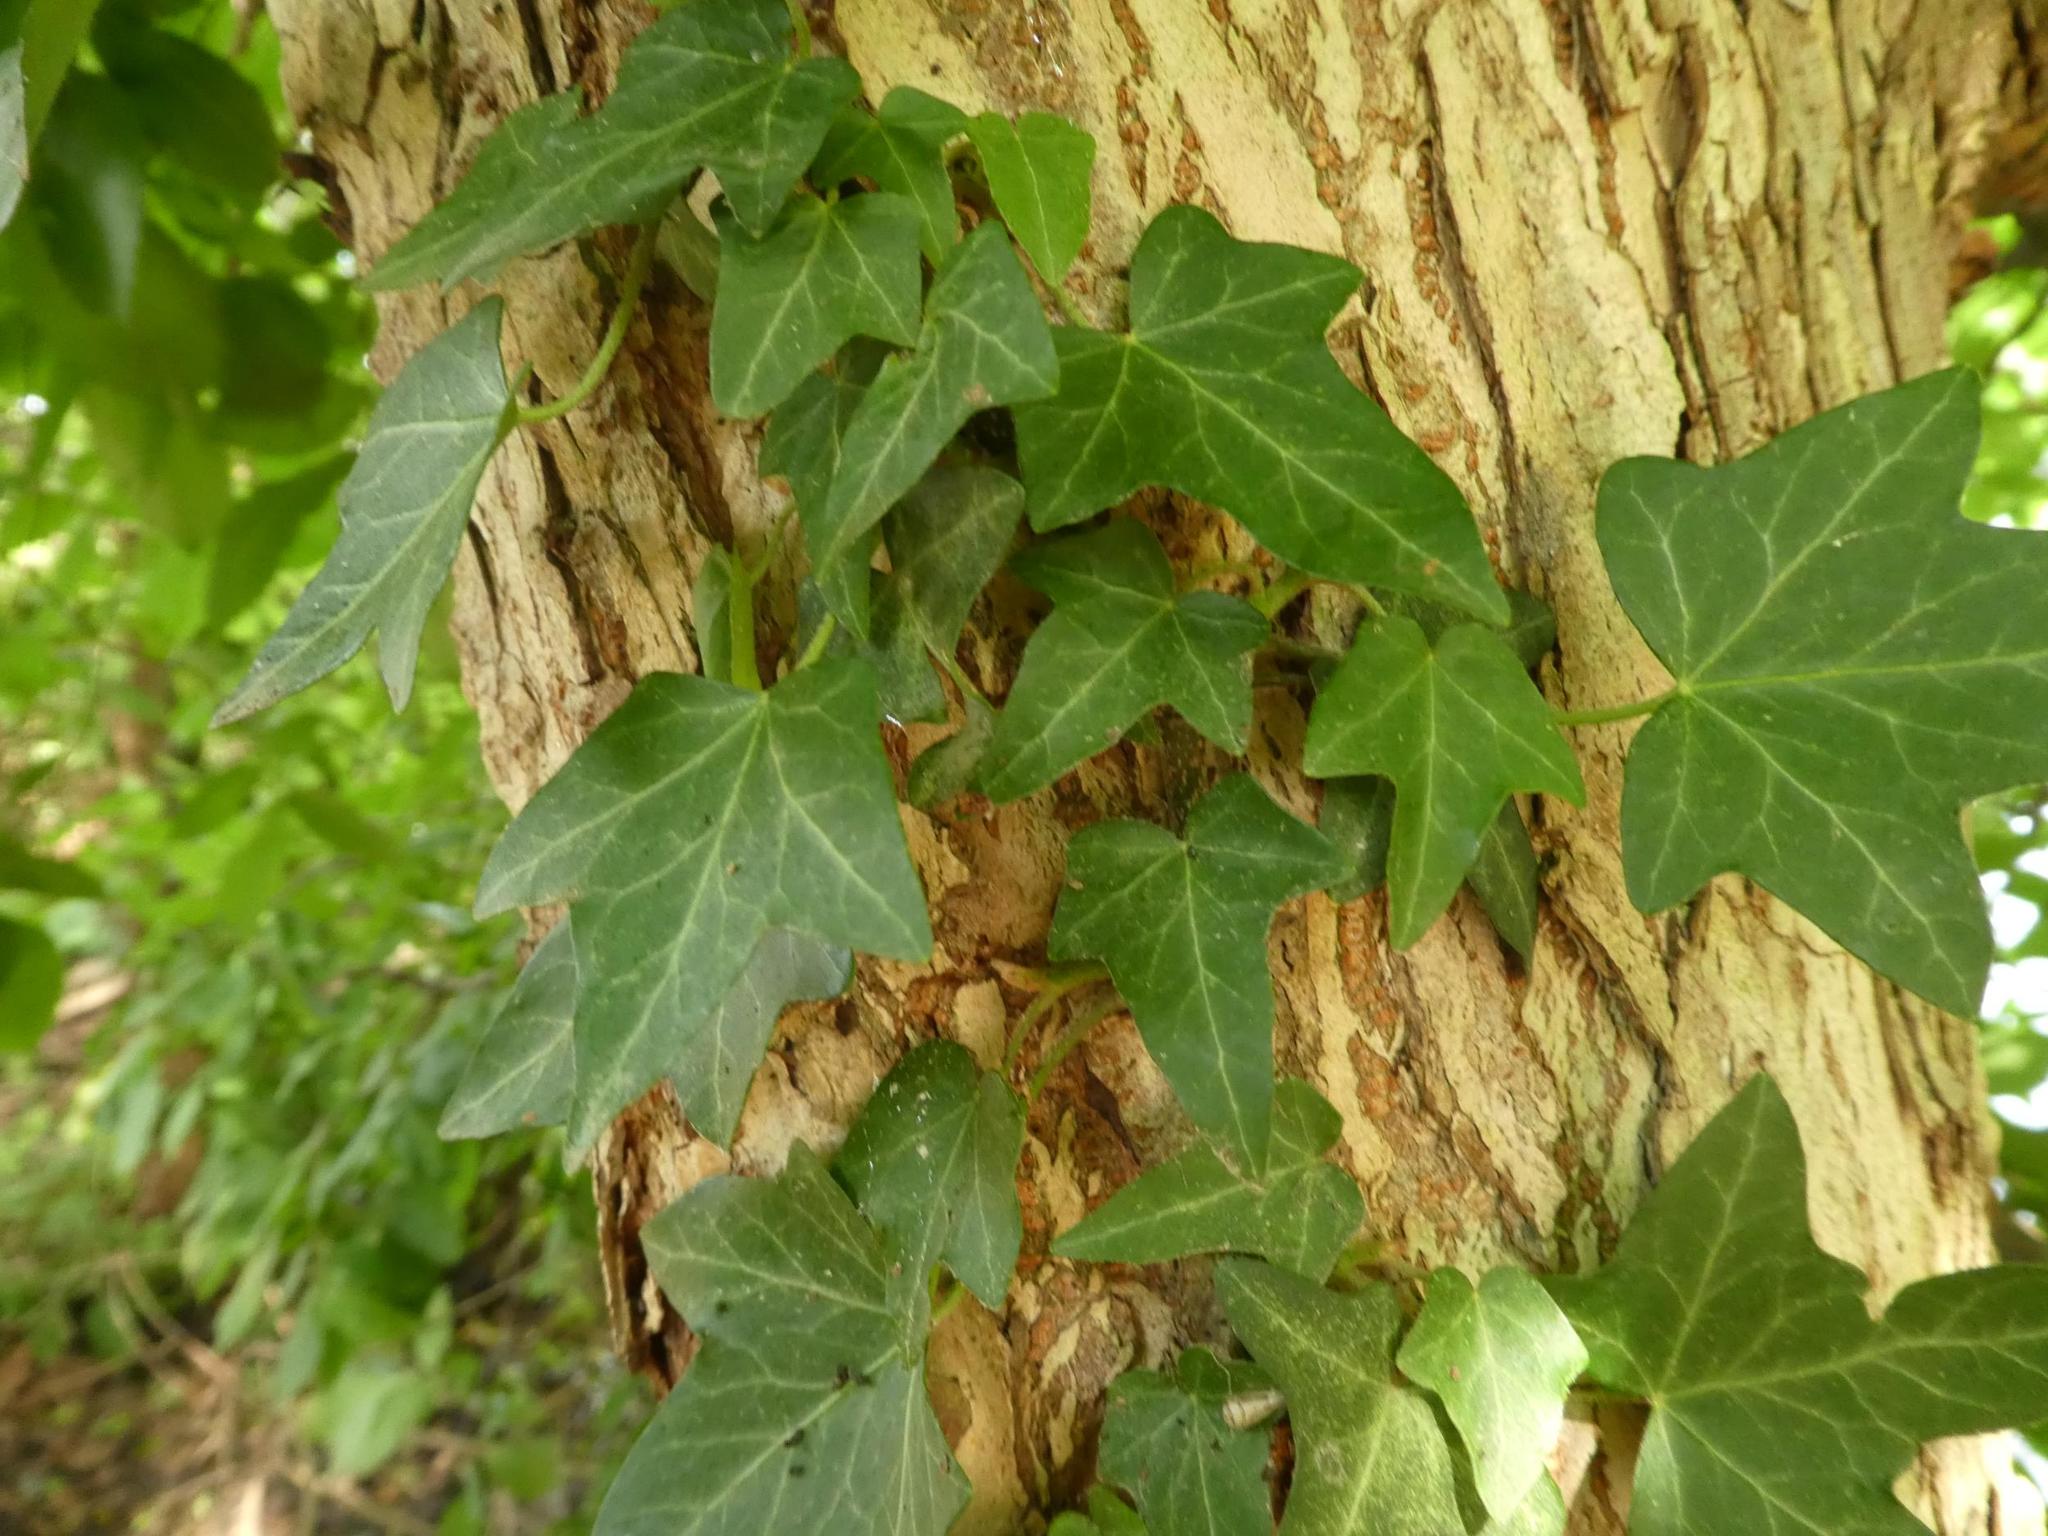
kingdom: Plantae
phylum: Tracheophyta
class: Magnoliopsida
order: Apiales
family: Araliaceae
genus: Hedera
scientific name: Hedera helix
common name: Ivy
